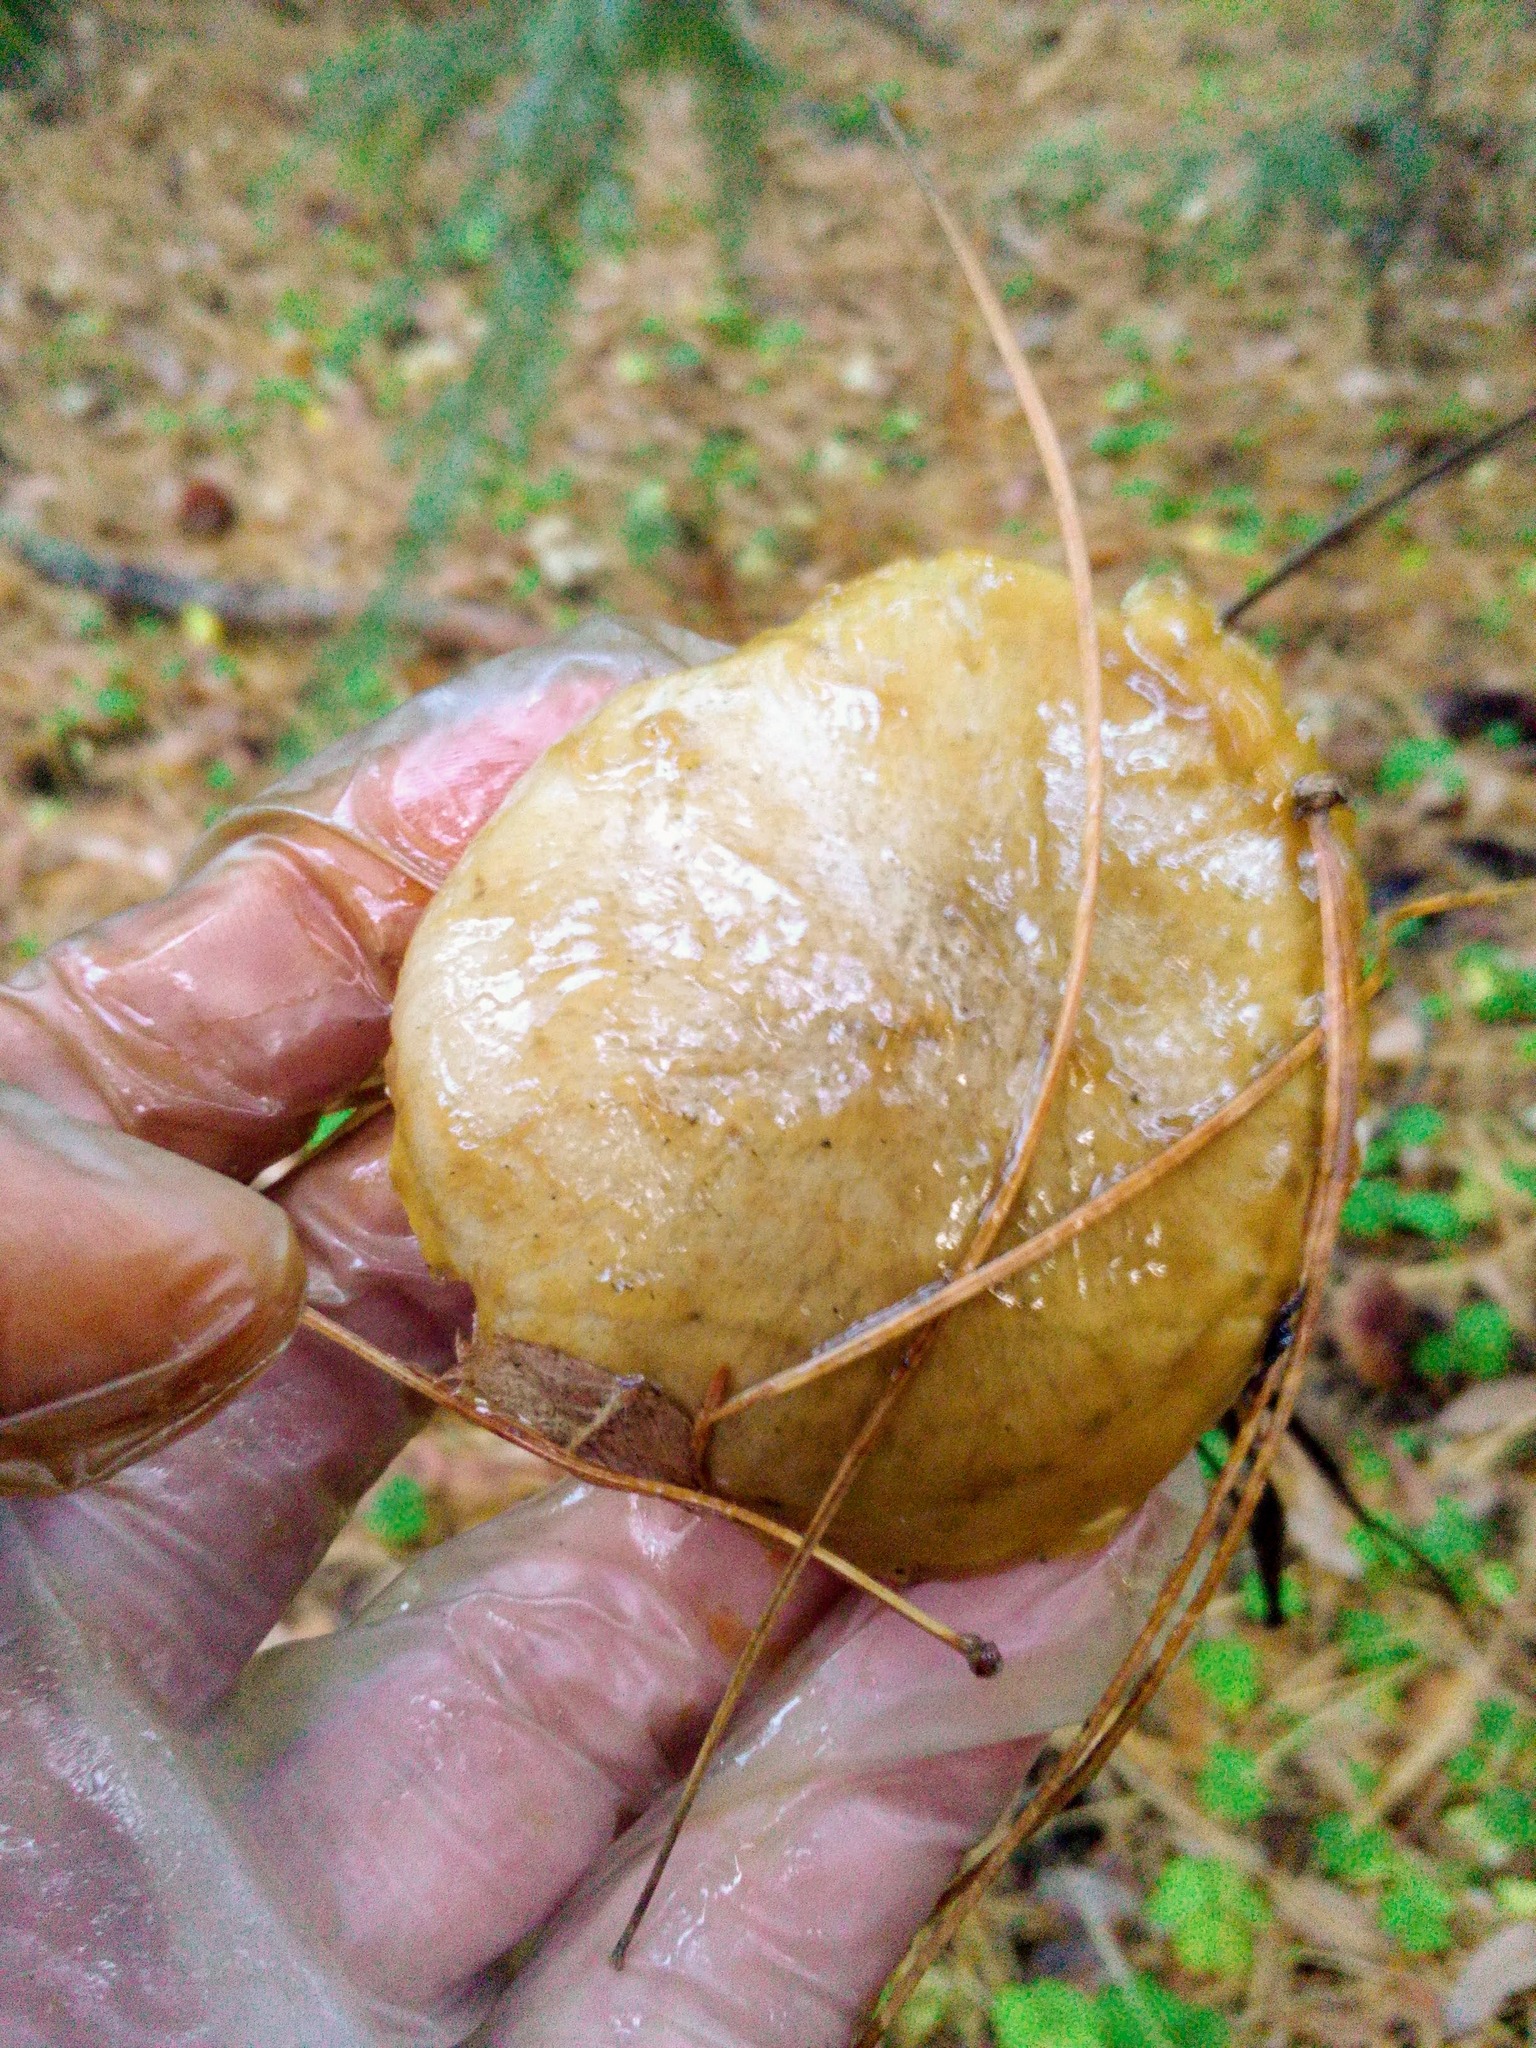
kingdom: Fungi
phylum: Basidiomycota
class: Agaricomycetes
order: Boletales
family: Suillaceae
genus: Suillus
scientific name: Suillus acidus
